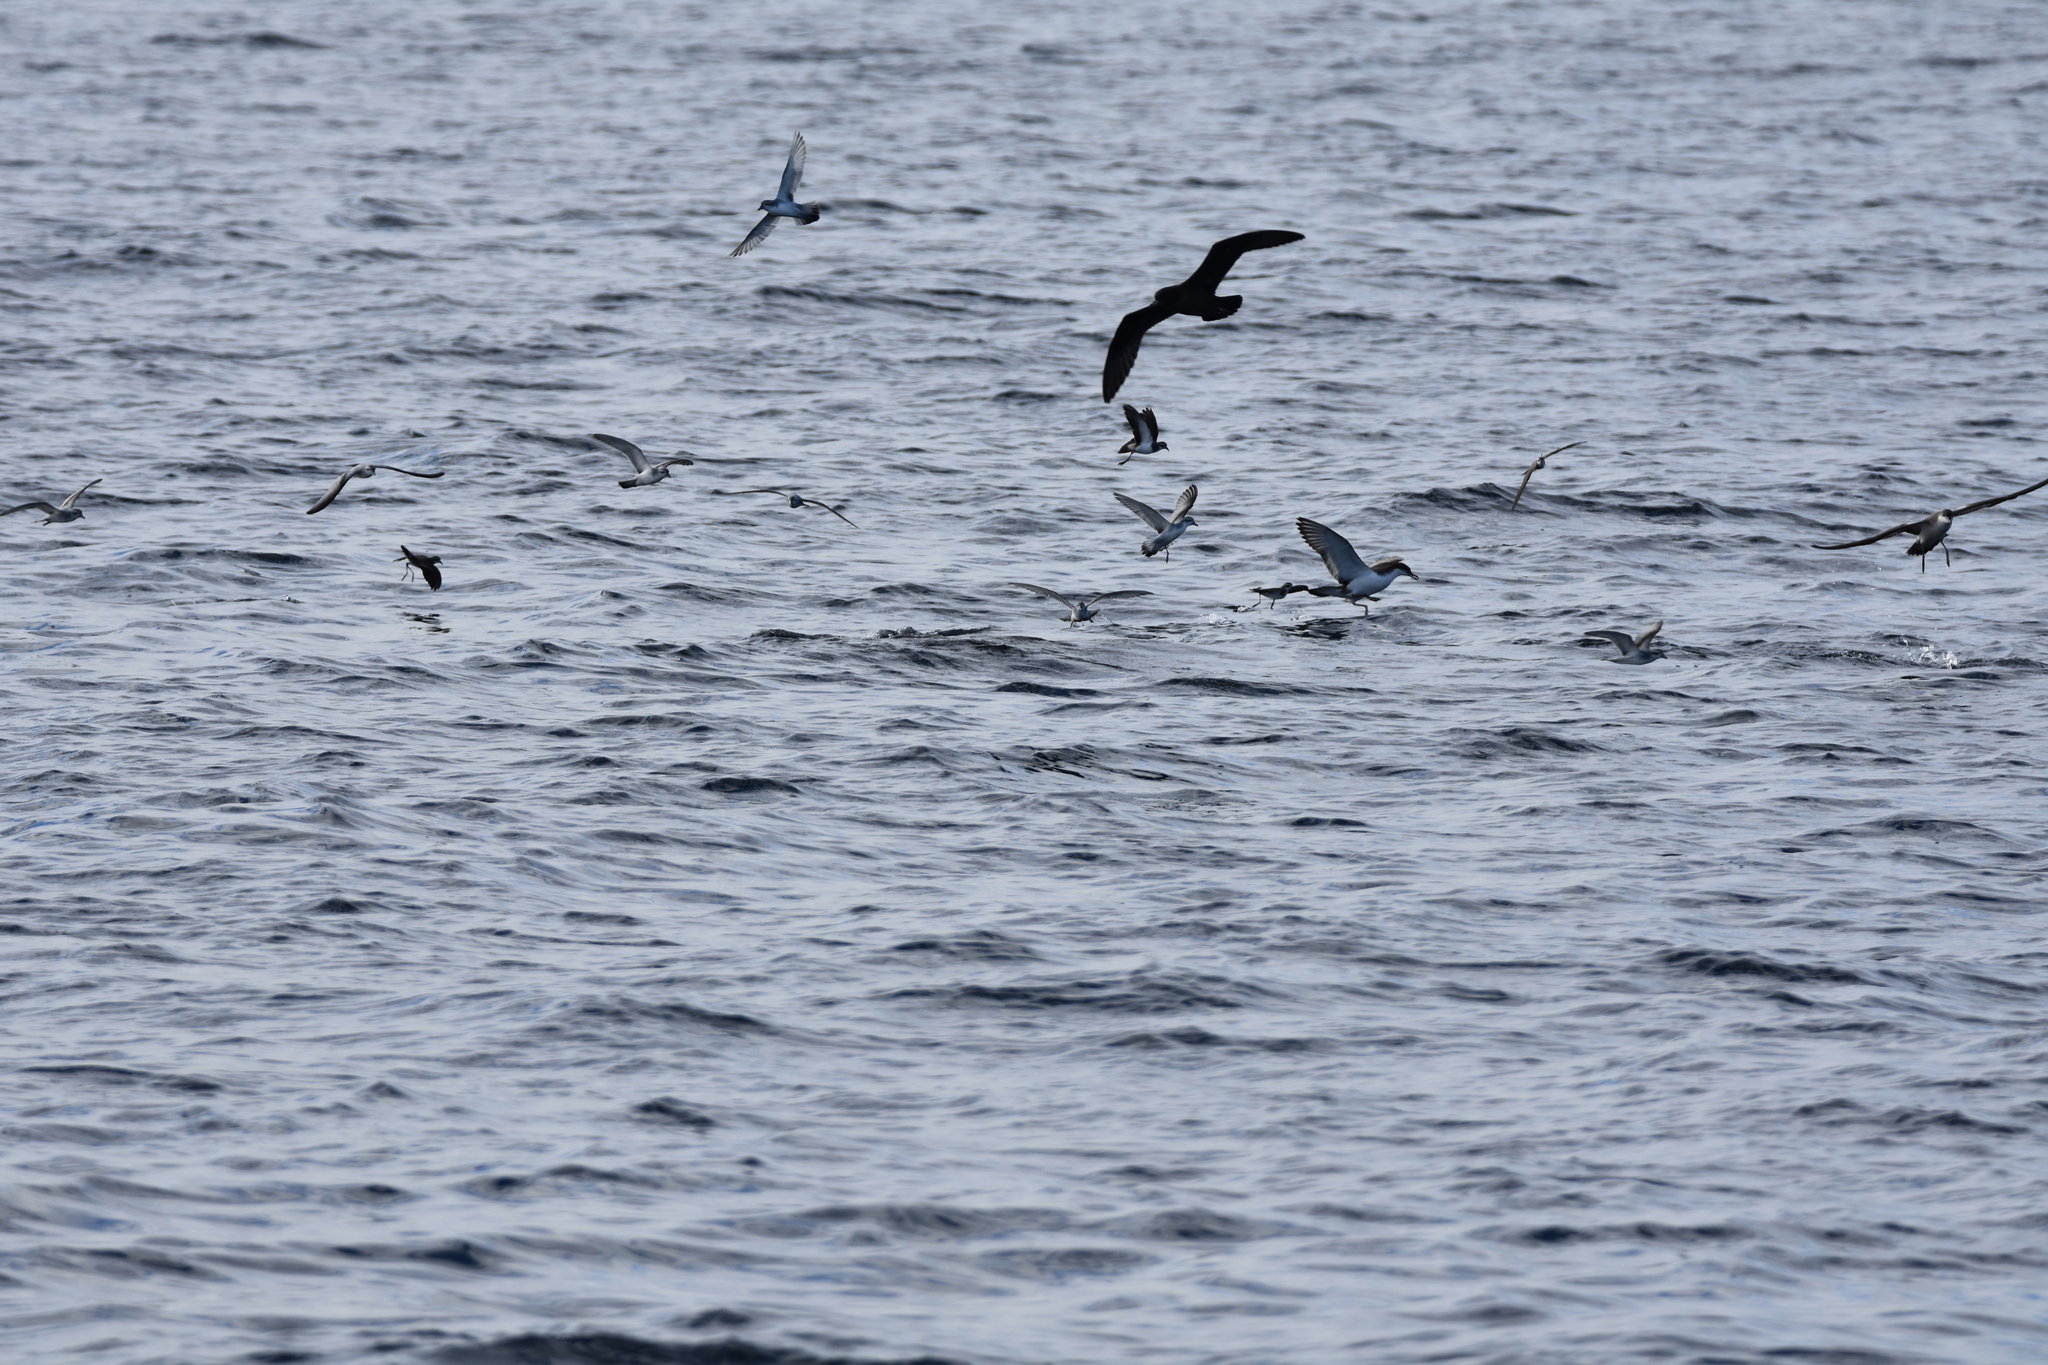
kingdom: Animalia
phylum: Chordata
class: Aves
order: Procellariiformes
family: Procellariidae
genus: Pachyptila
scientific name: Pachyptila turtur
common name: Fairy prion
